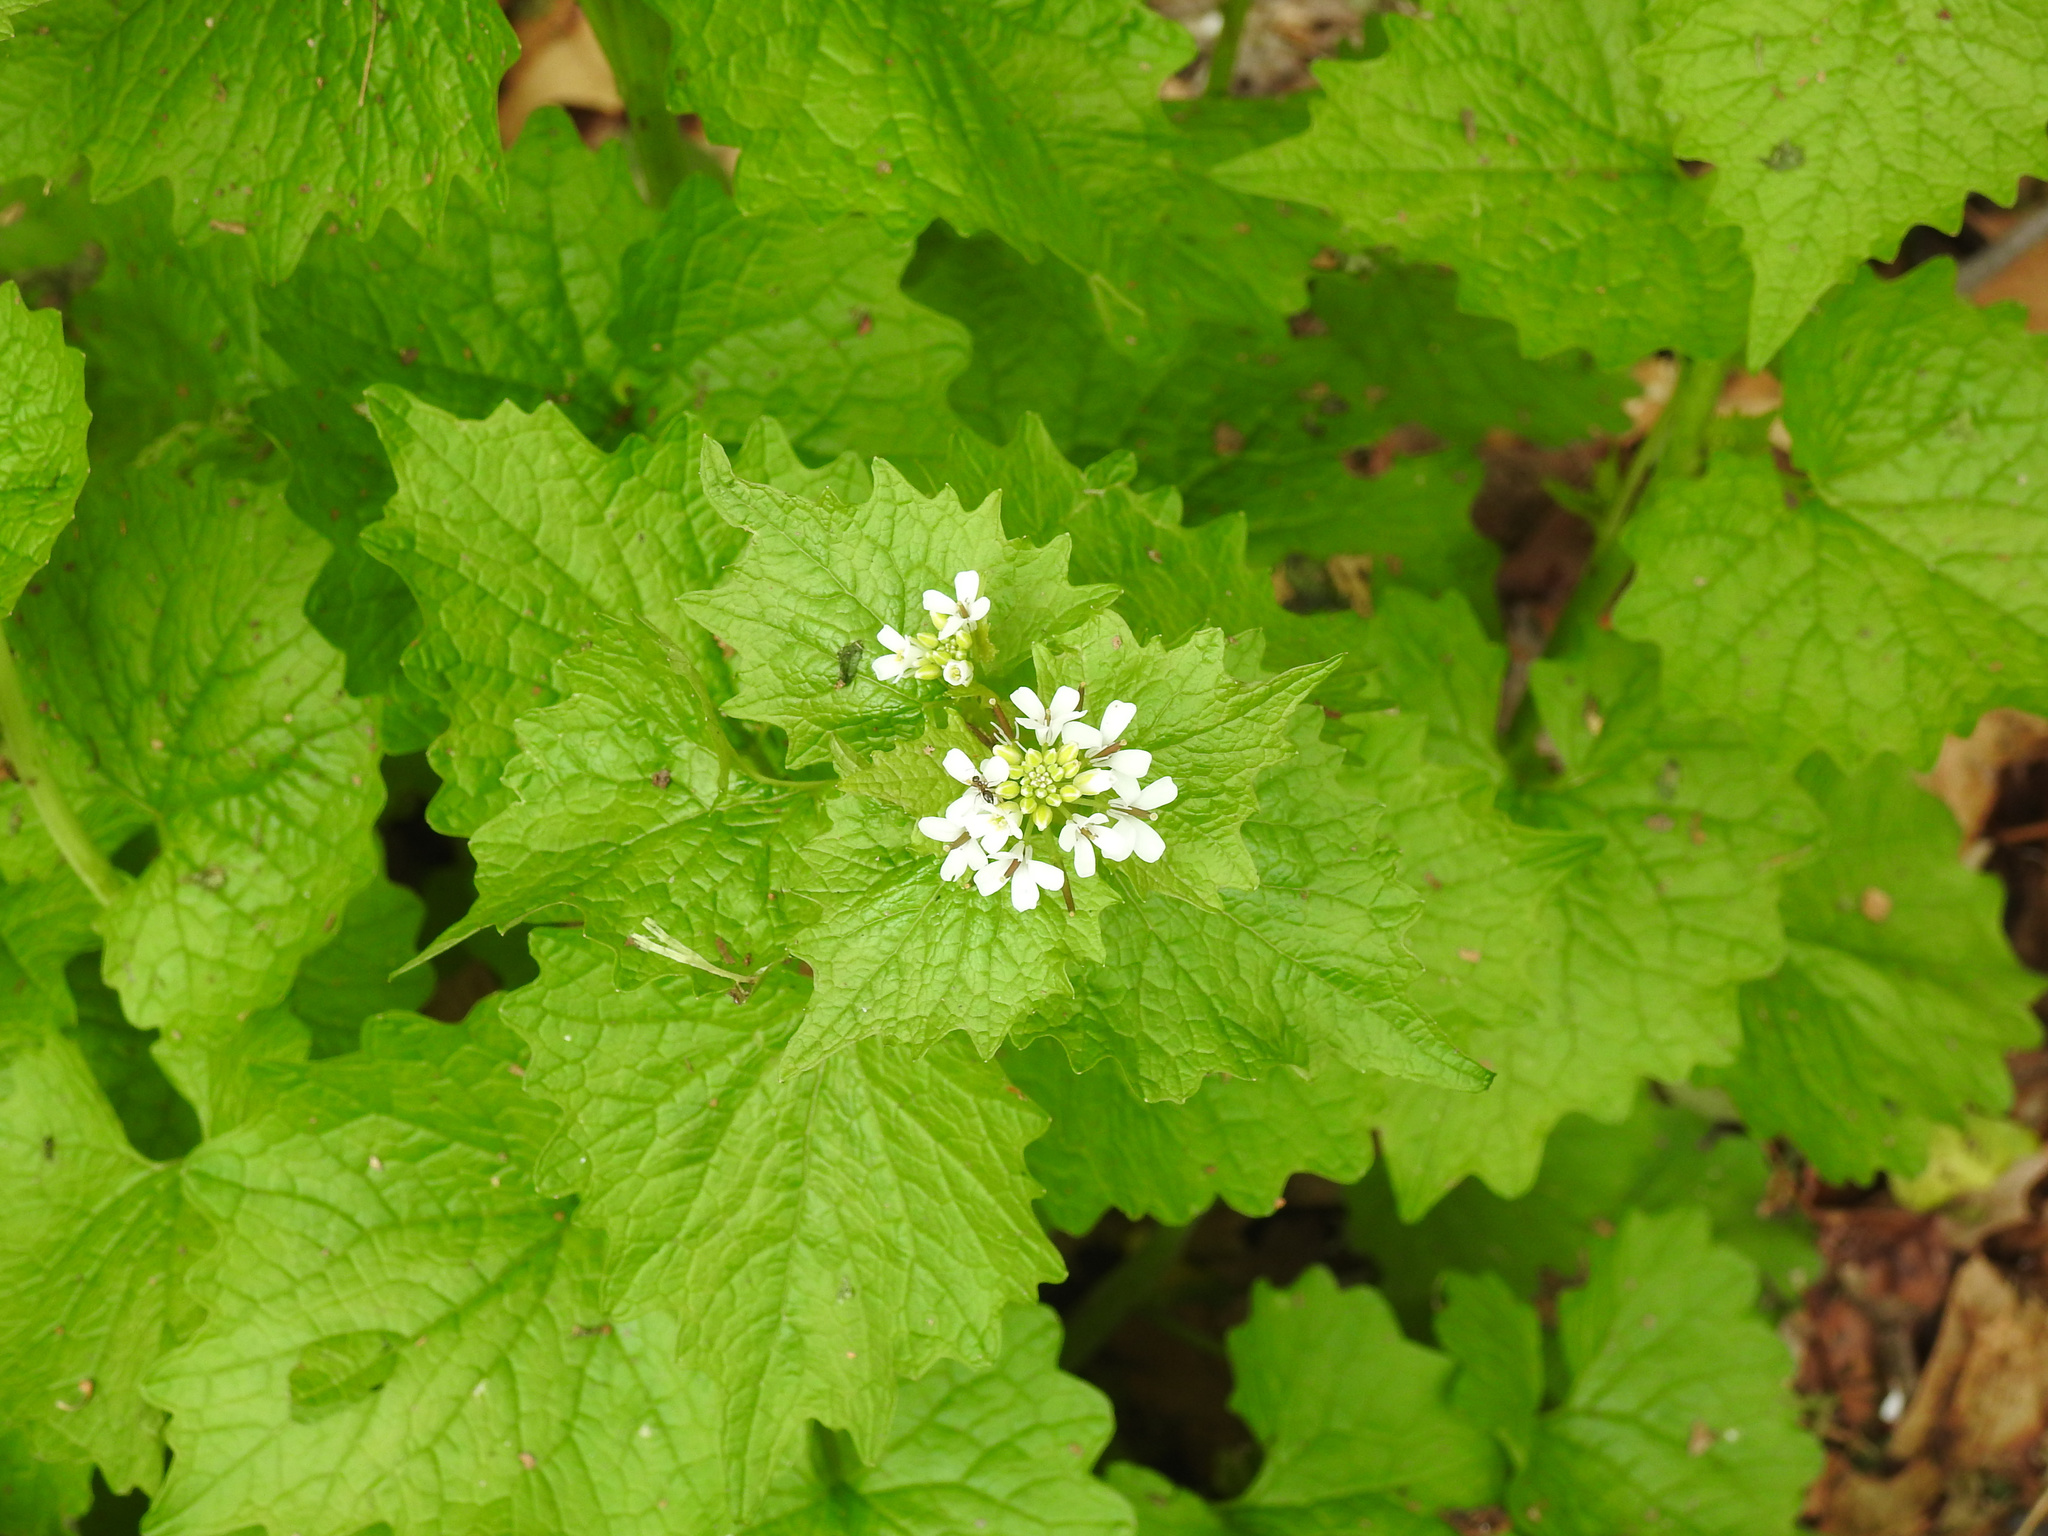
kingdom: Plantae
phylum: Tracheophyta
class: Magnoliopsida
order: Brassicales
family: Brassicaceae
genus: Alliaria
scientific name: Alliaria petiolata
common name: Garlic mustard
